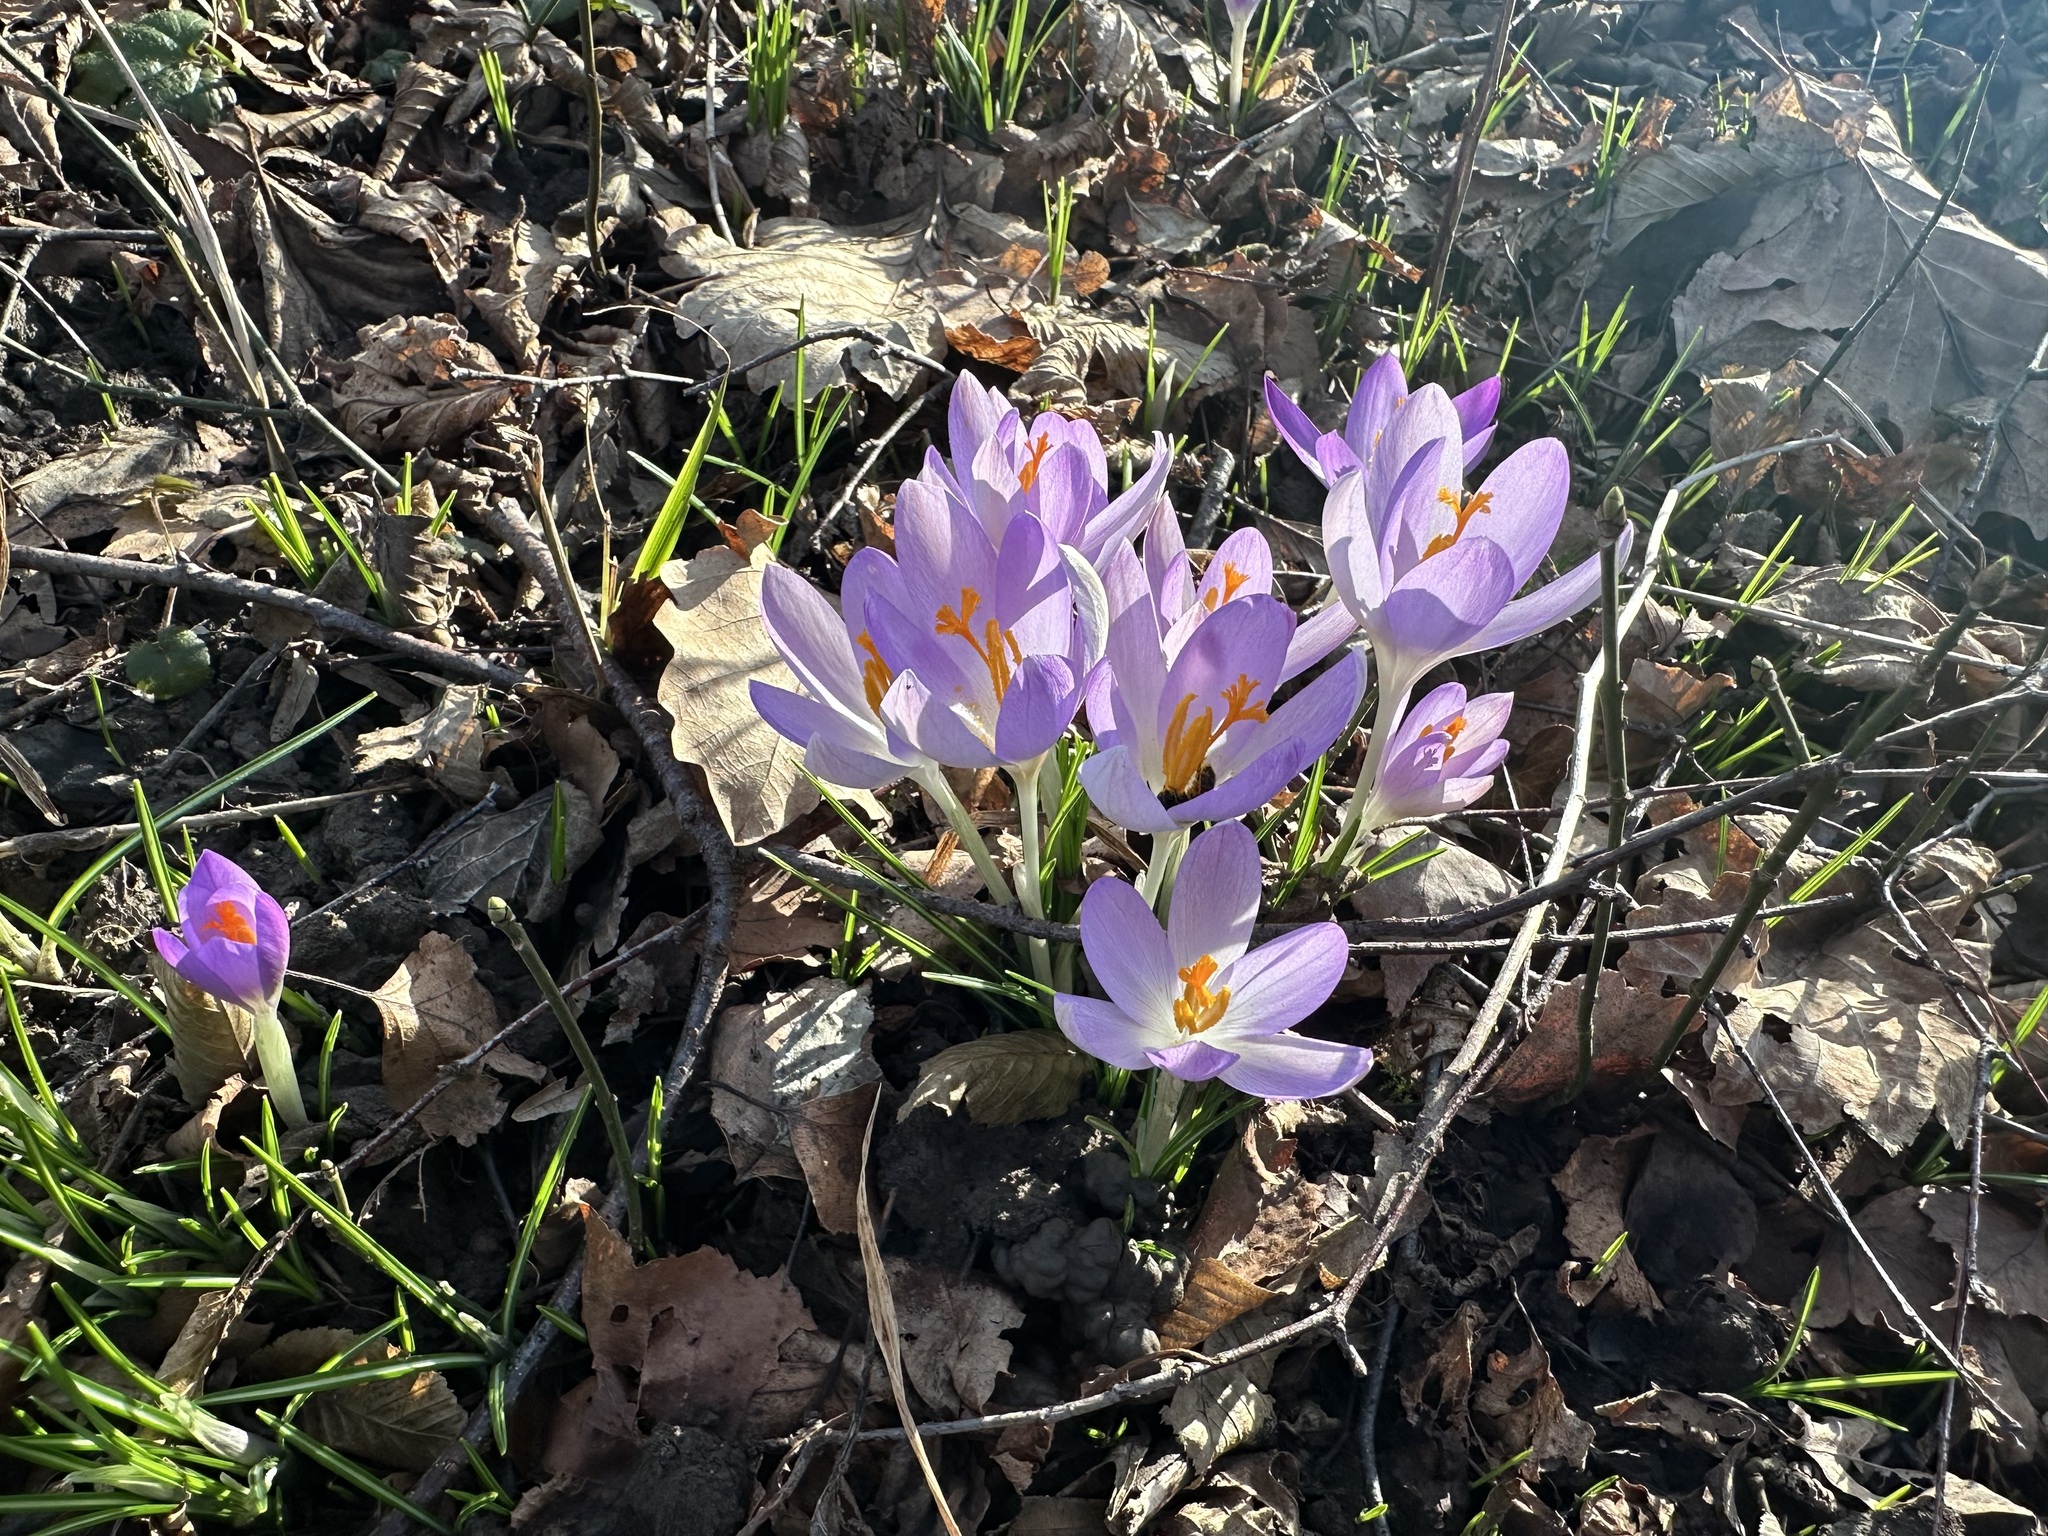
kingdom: Plantae
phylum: Tracheophyta
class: Liliopsida
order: Asparagales
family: Iridaceae
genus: Crocus
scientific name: Crocus tommasinianus
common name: Early crocus
